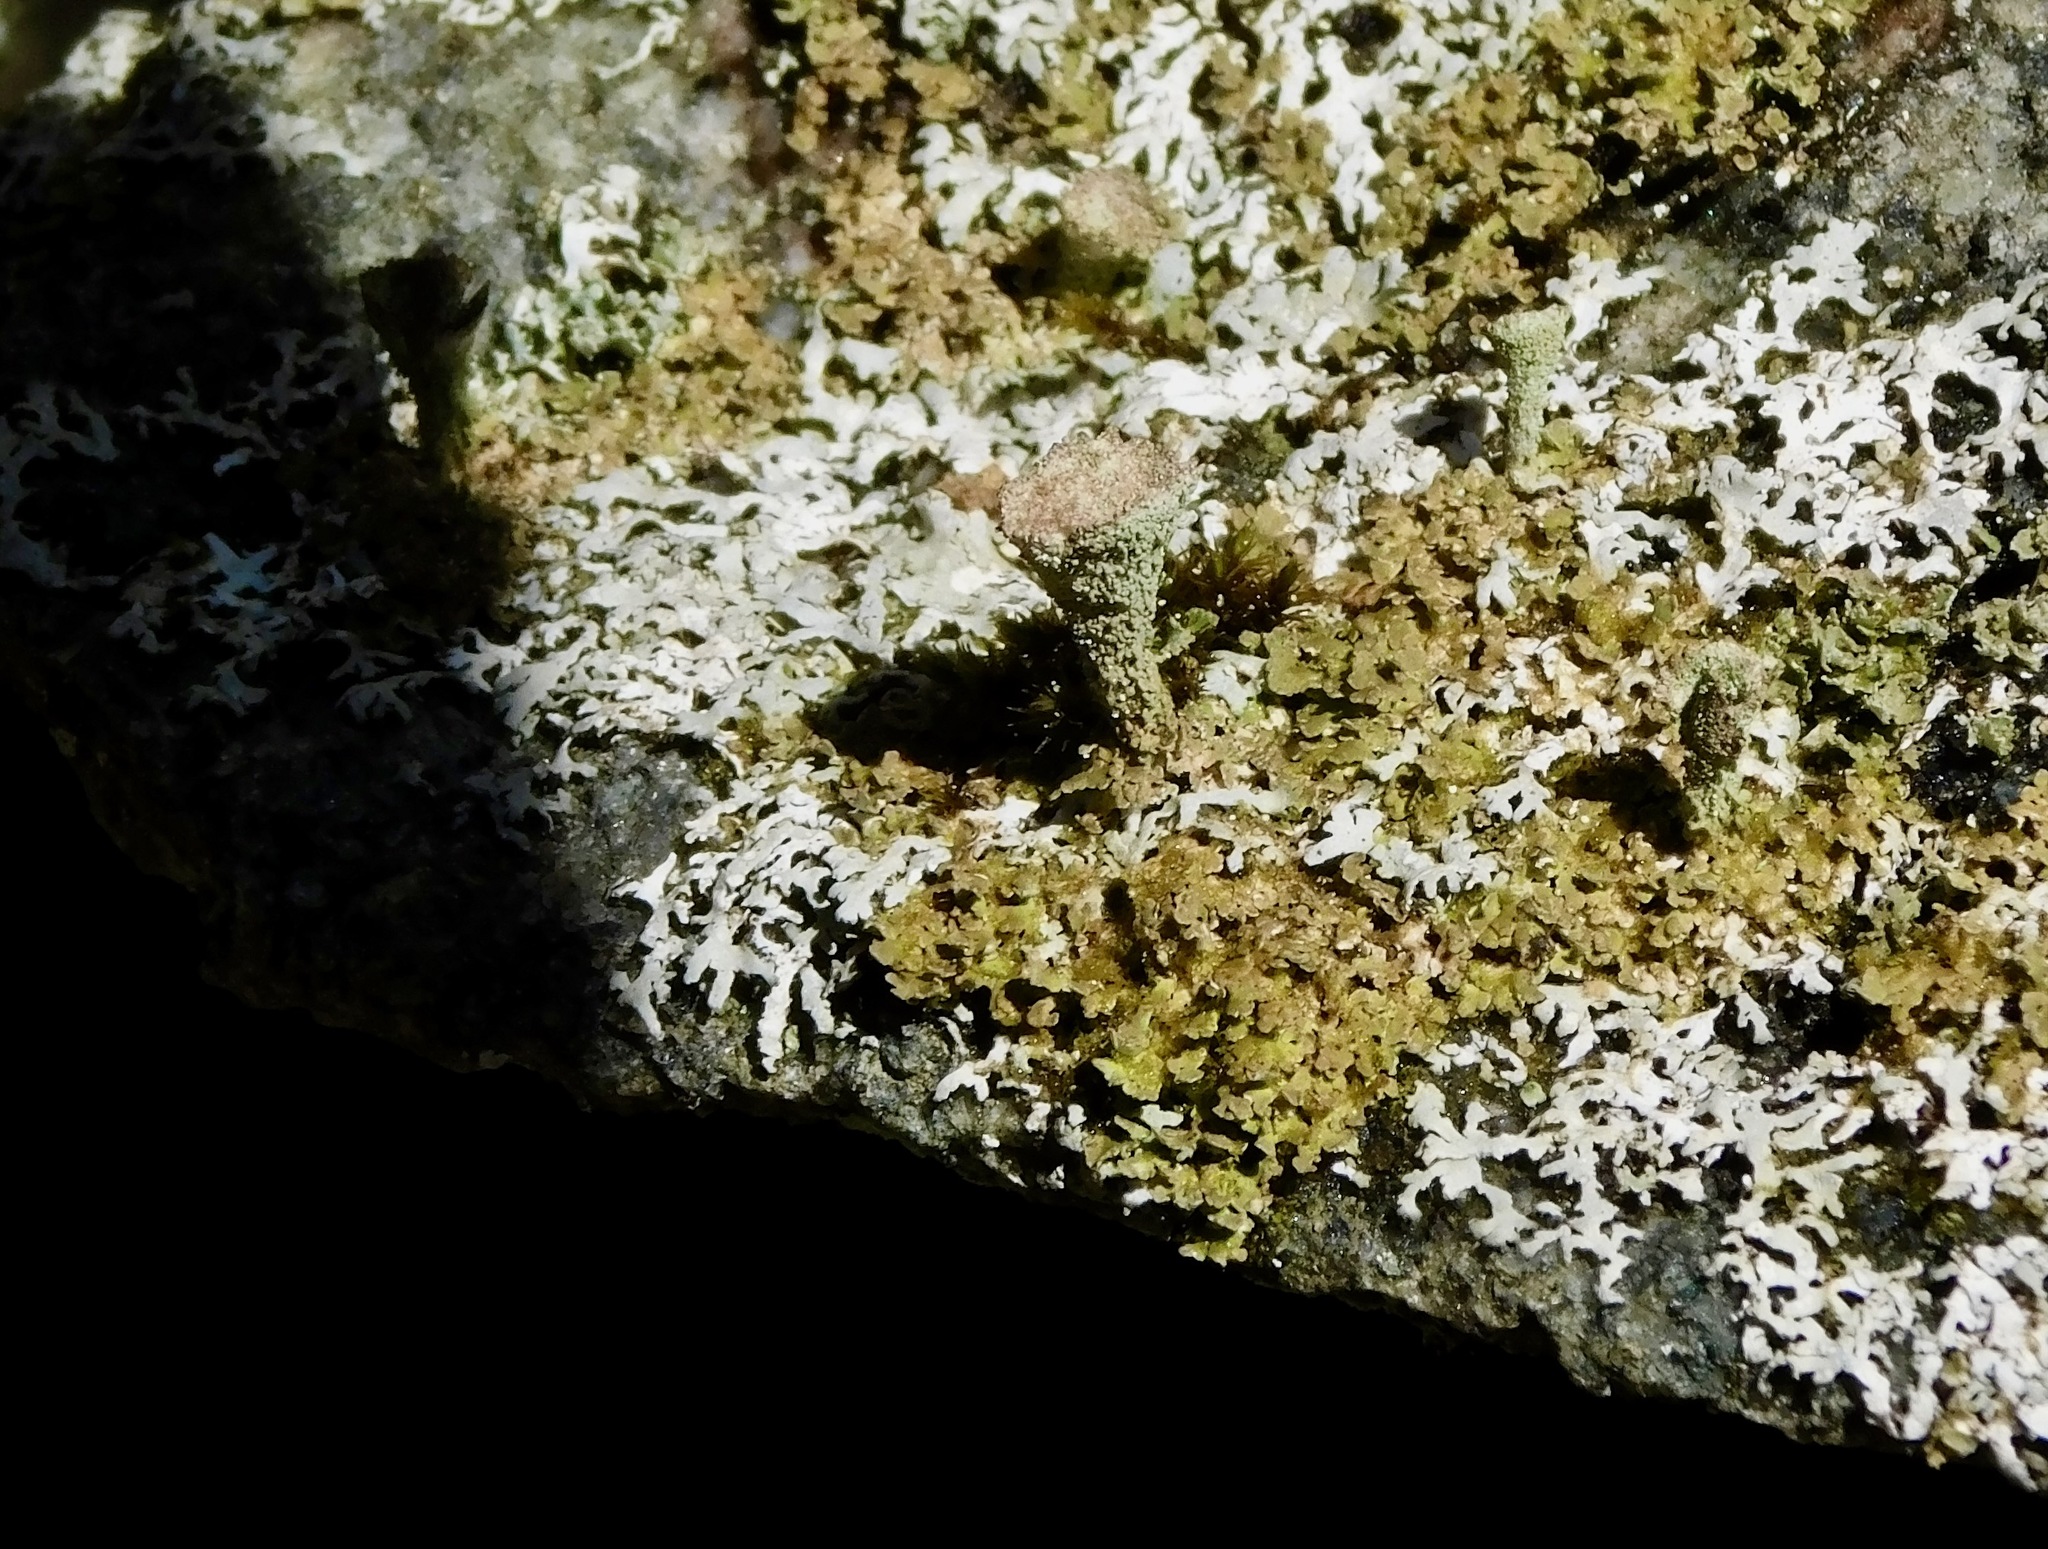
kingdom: Fungi
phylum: Ascomycota
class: Lecanoromycetes
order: Lecanorales
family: Cladoniaceae
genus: Cladonia
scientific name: Cladonia pyxidata
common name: Pebbled pixie cup
